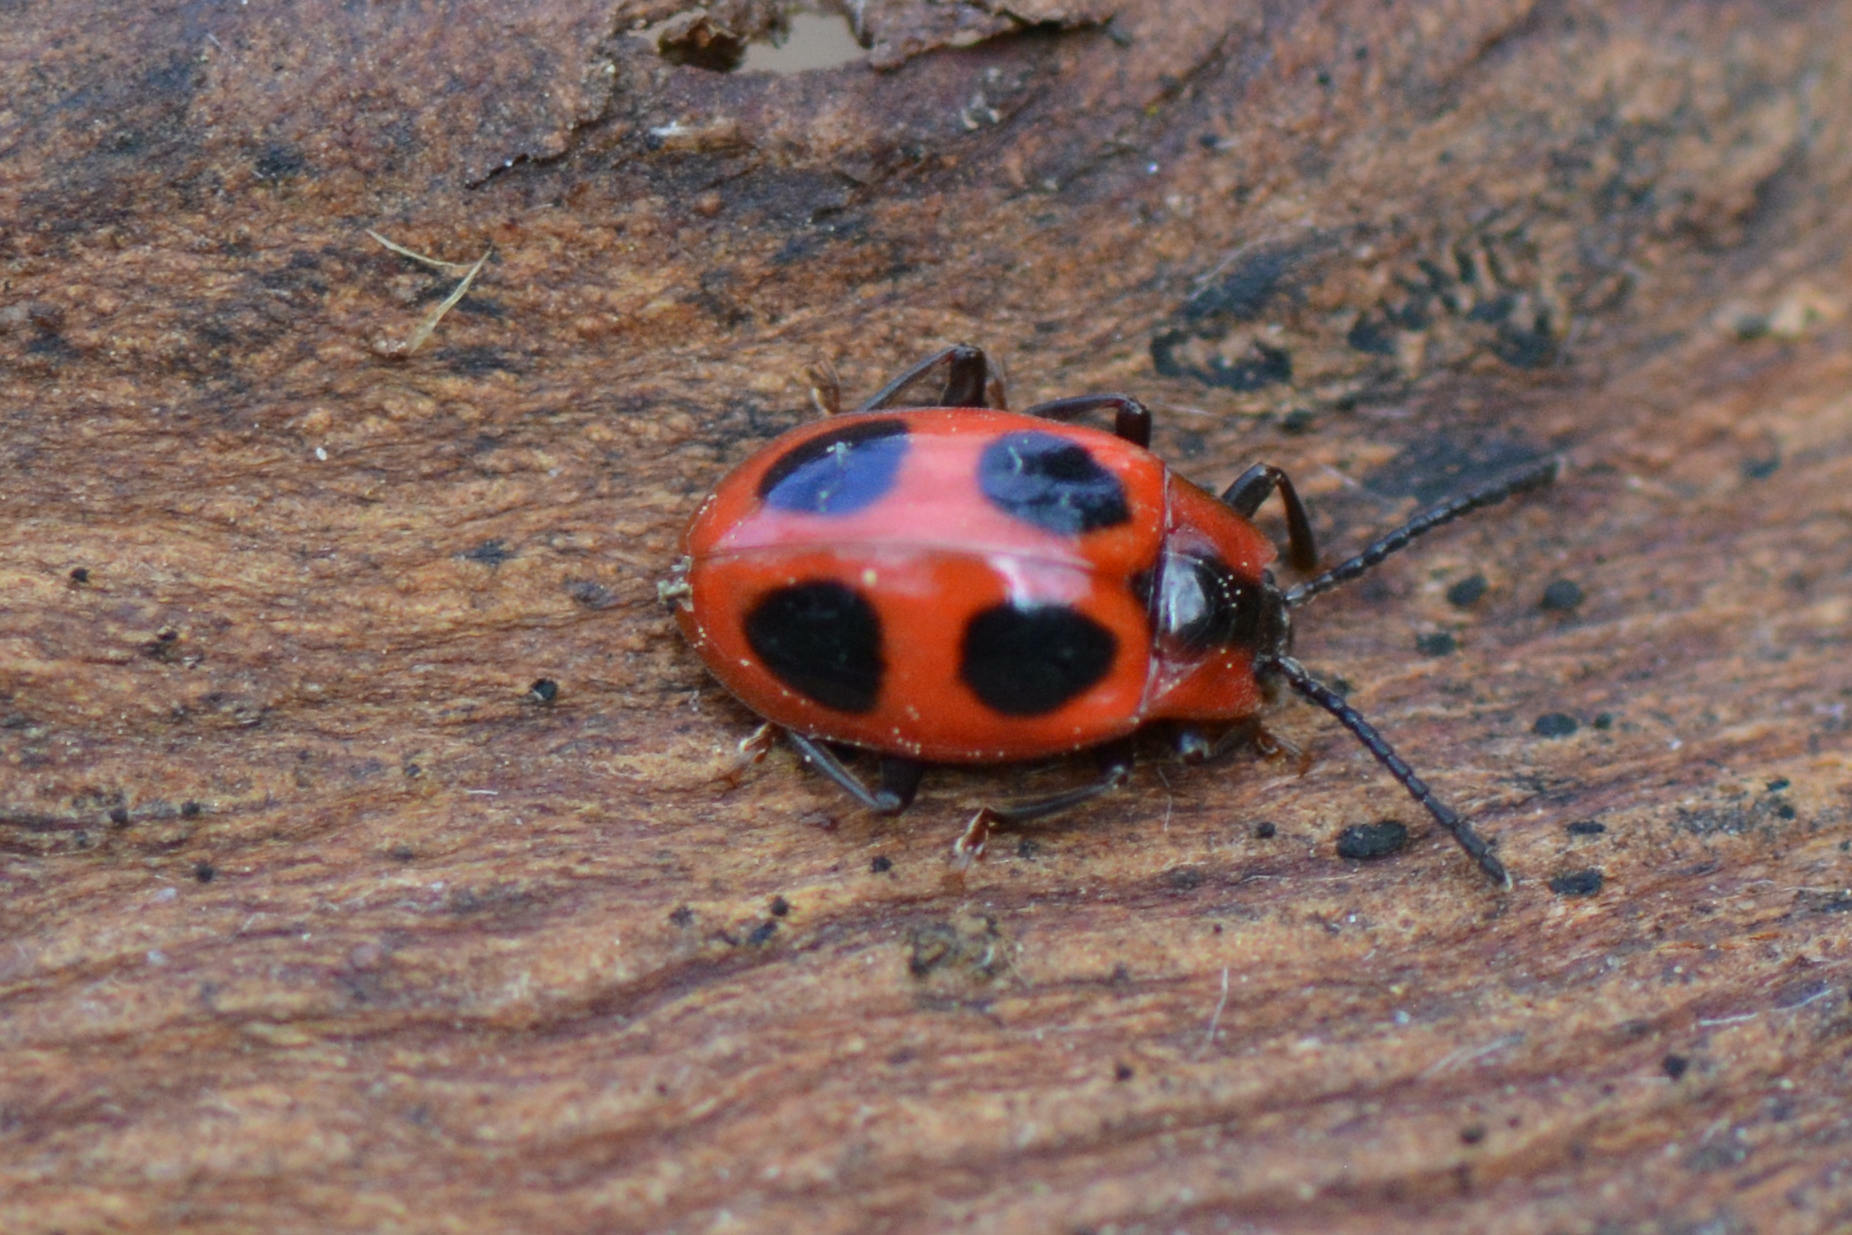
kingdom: Animalia
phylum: Arthropoda
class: Insecta
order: Coleoptera
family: Endomychidae
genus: Endomychus
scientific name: Endomychus coccineus
